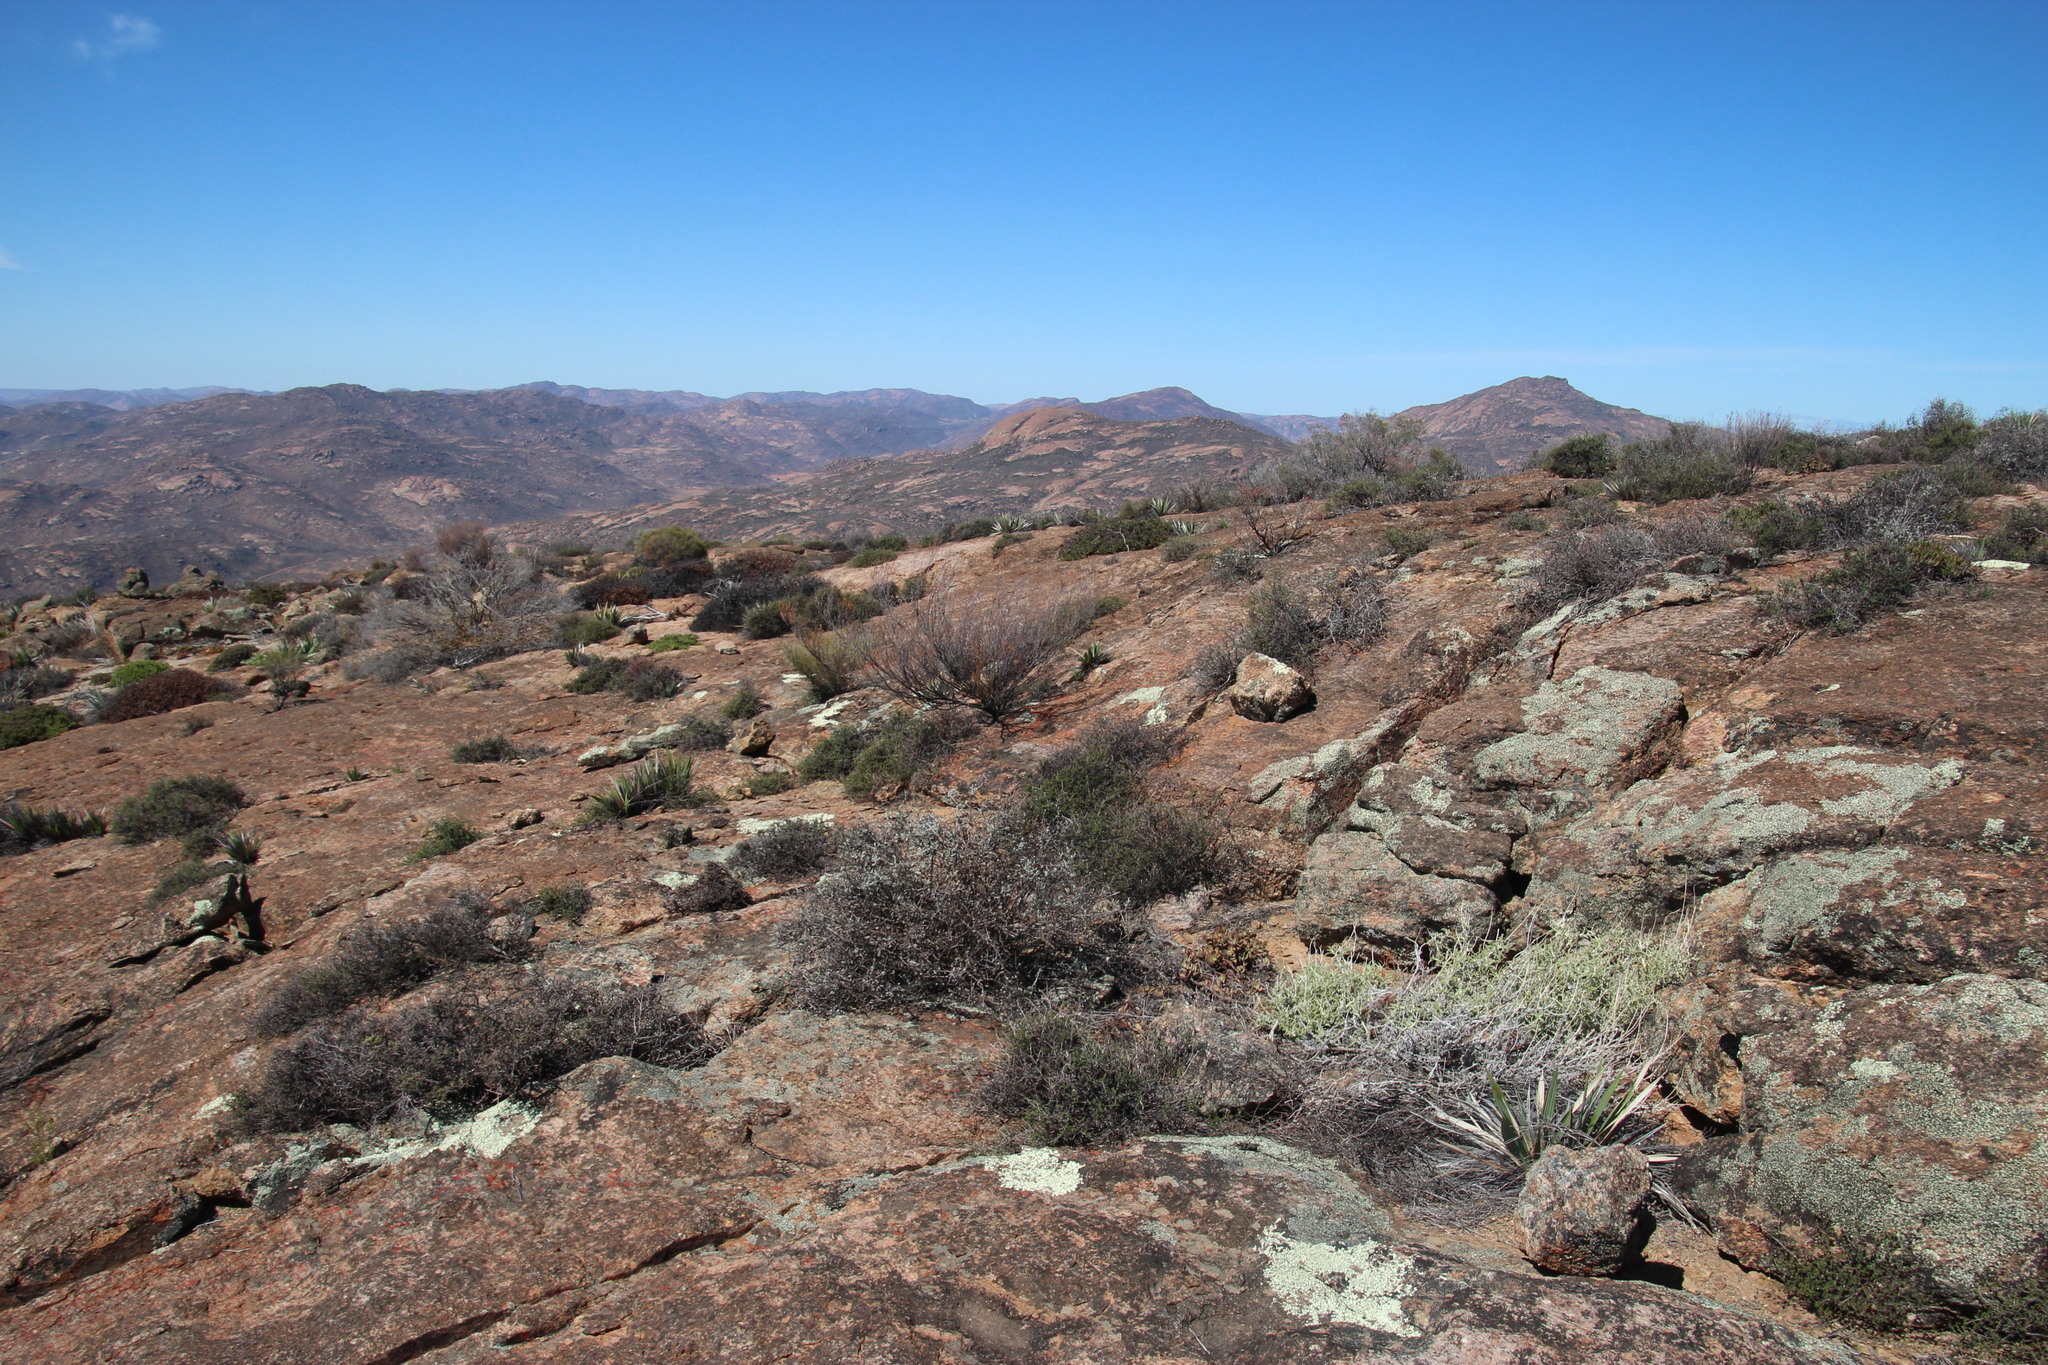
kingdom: Plantae
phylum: Tracheophyta
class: Liliopsida
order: Asparagales
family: Iridaceae
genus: Babiana
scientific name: Babiana dregei
